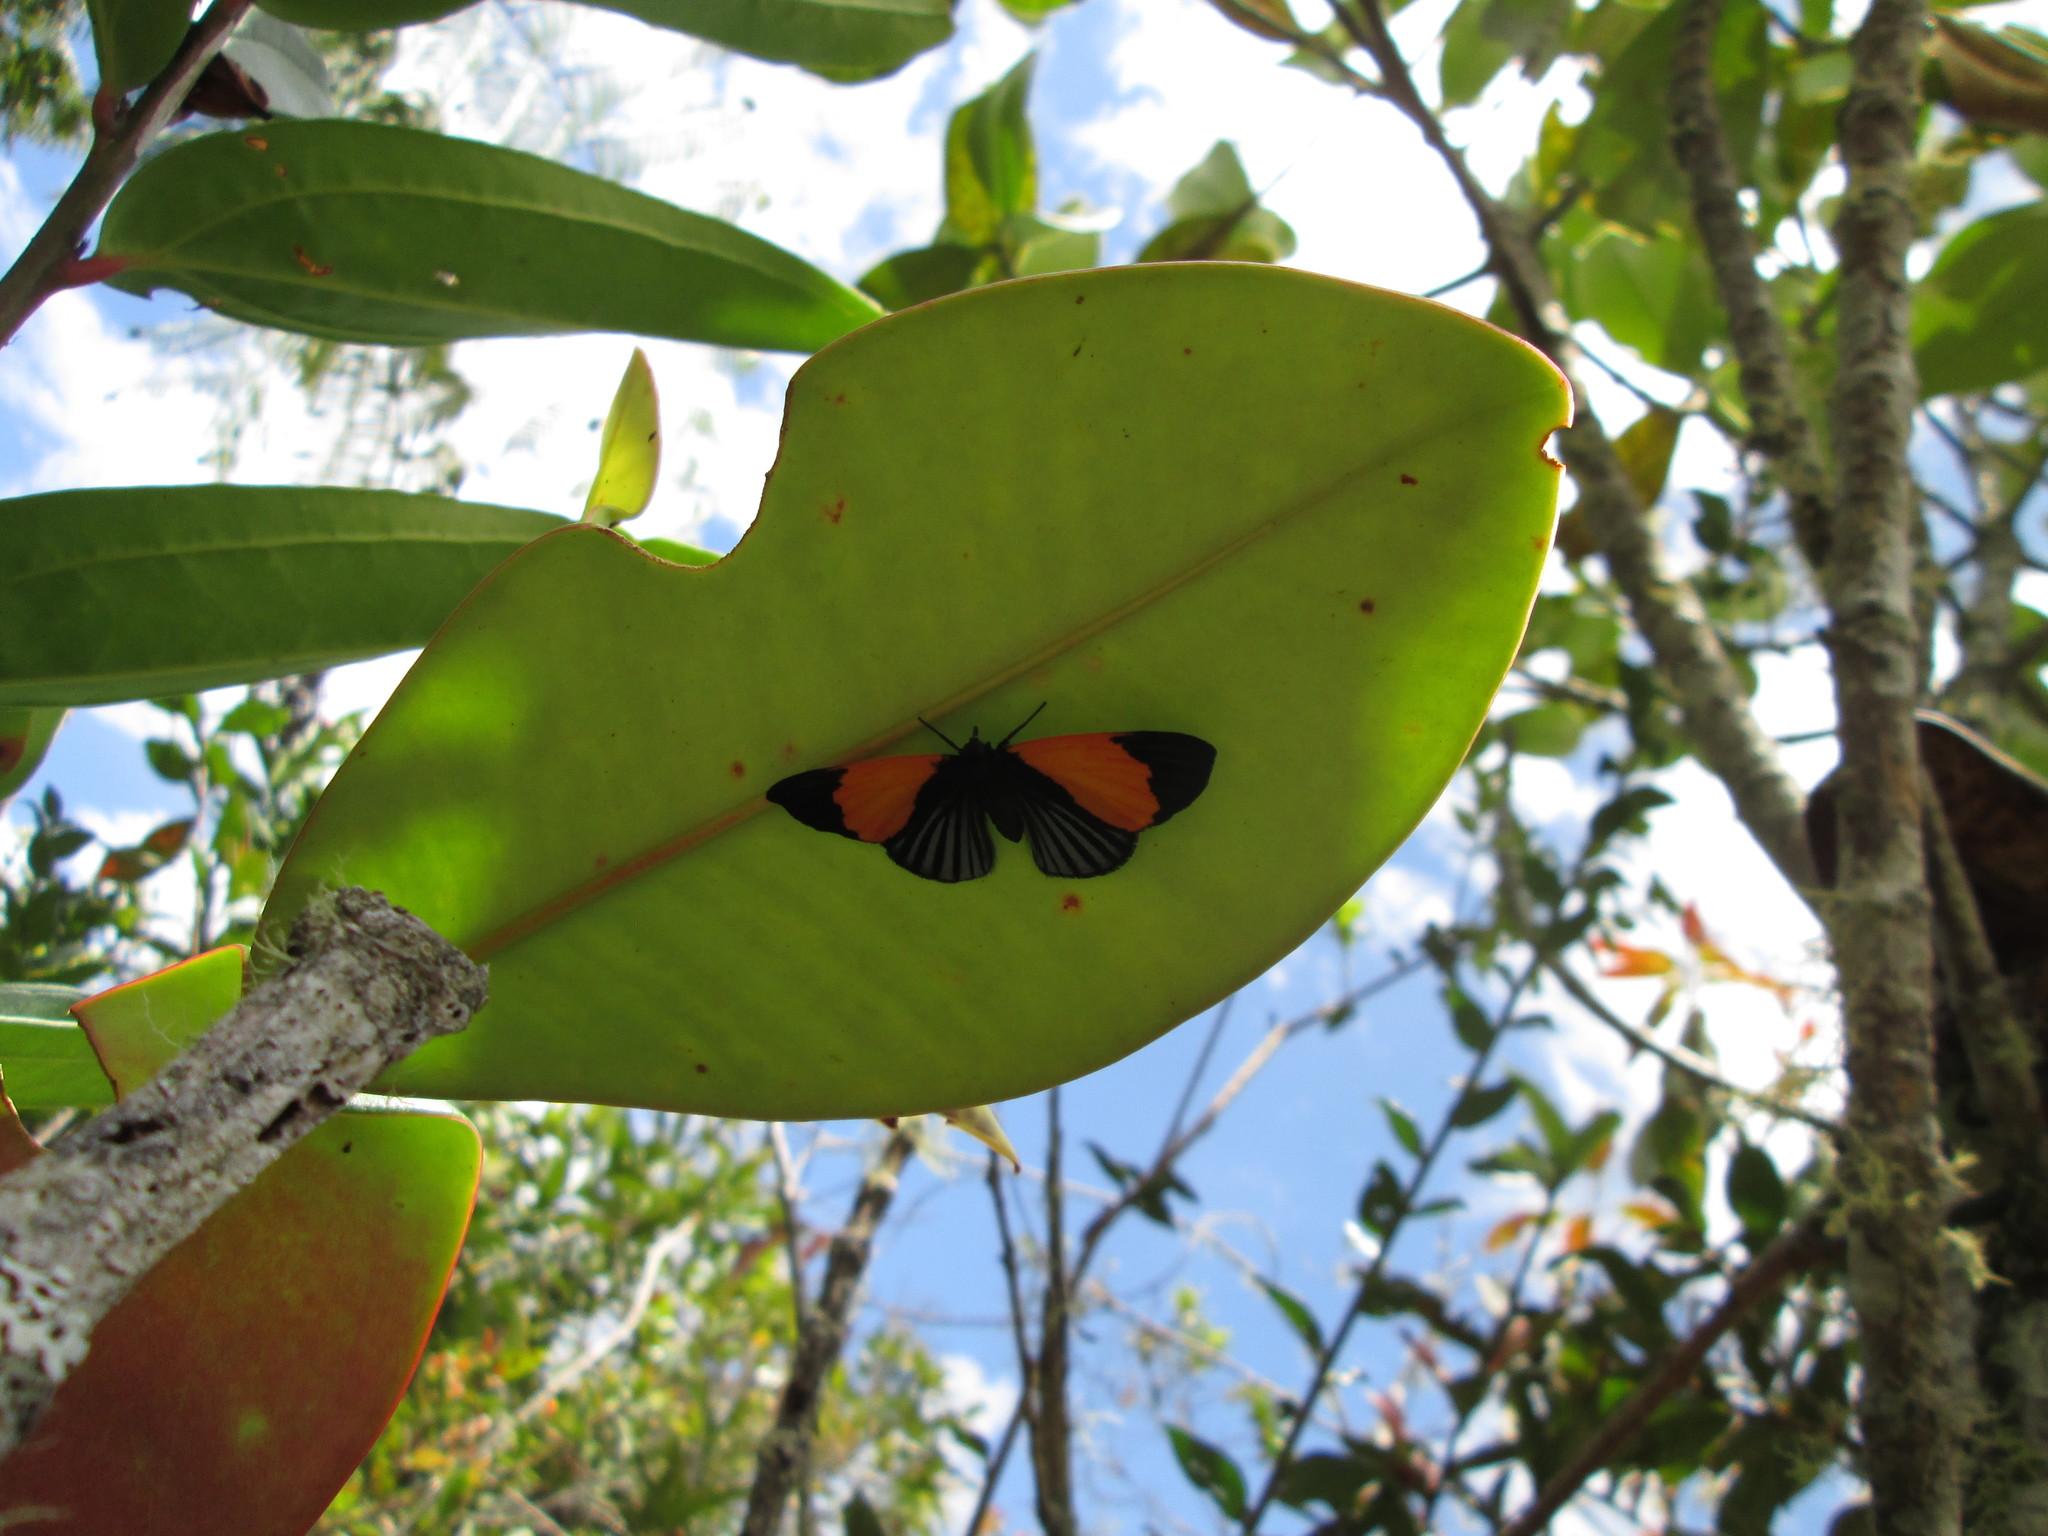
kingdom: Animalia
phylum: Arthropoda
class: Insecta
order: Lepidoptera
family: Riodinidae
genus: Lucillella
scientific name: Lucillella asterra
